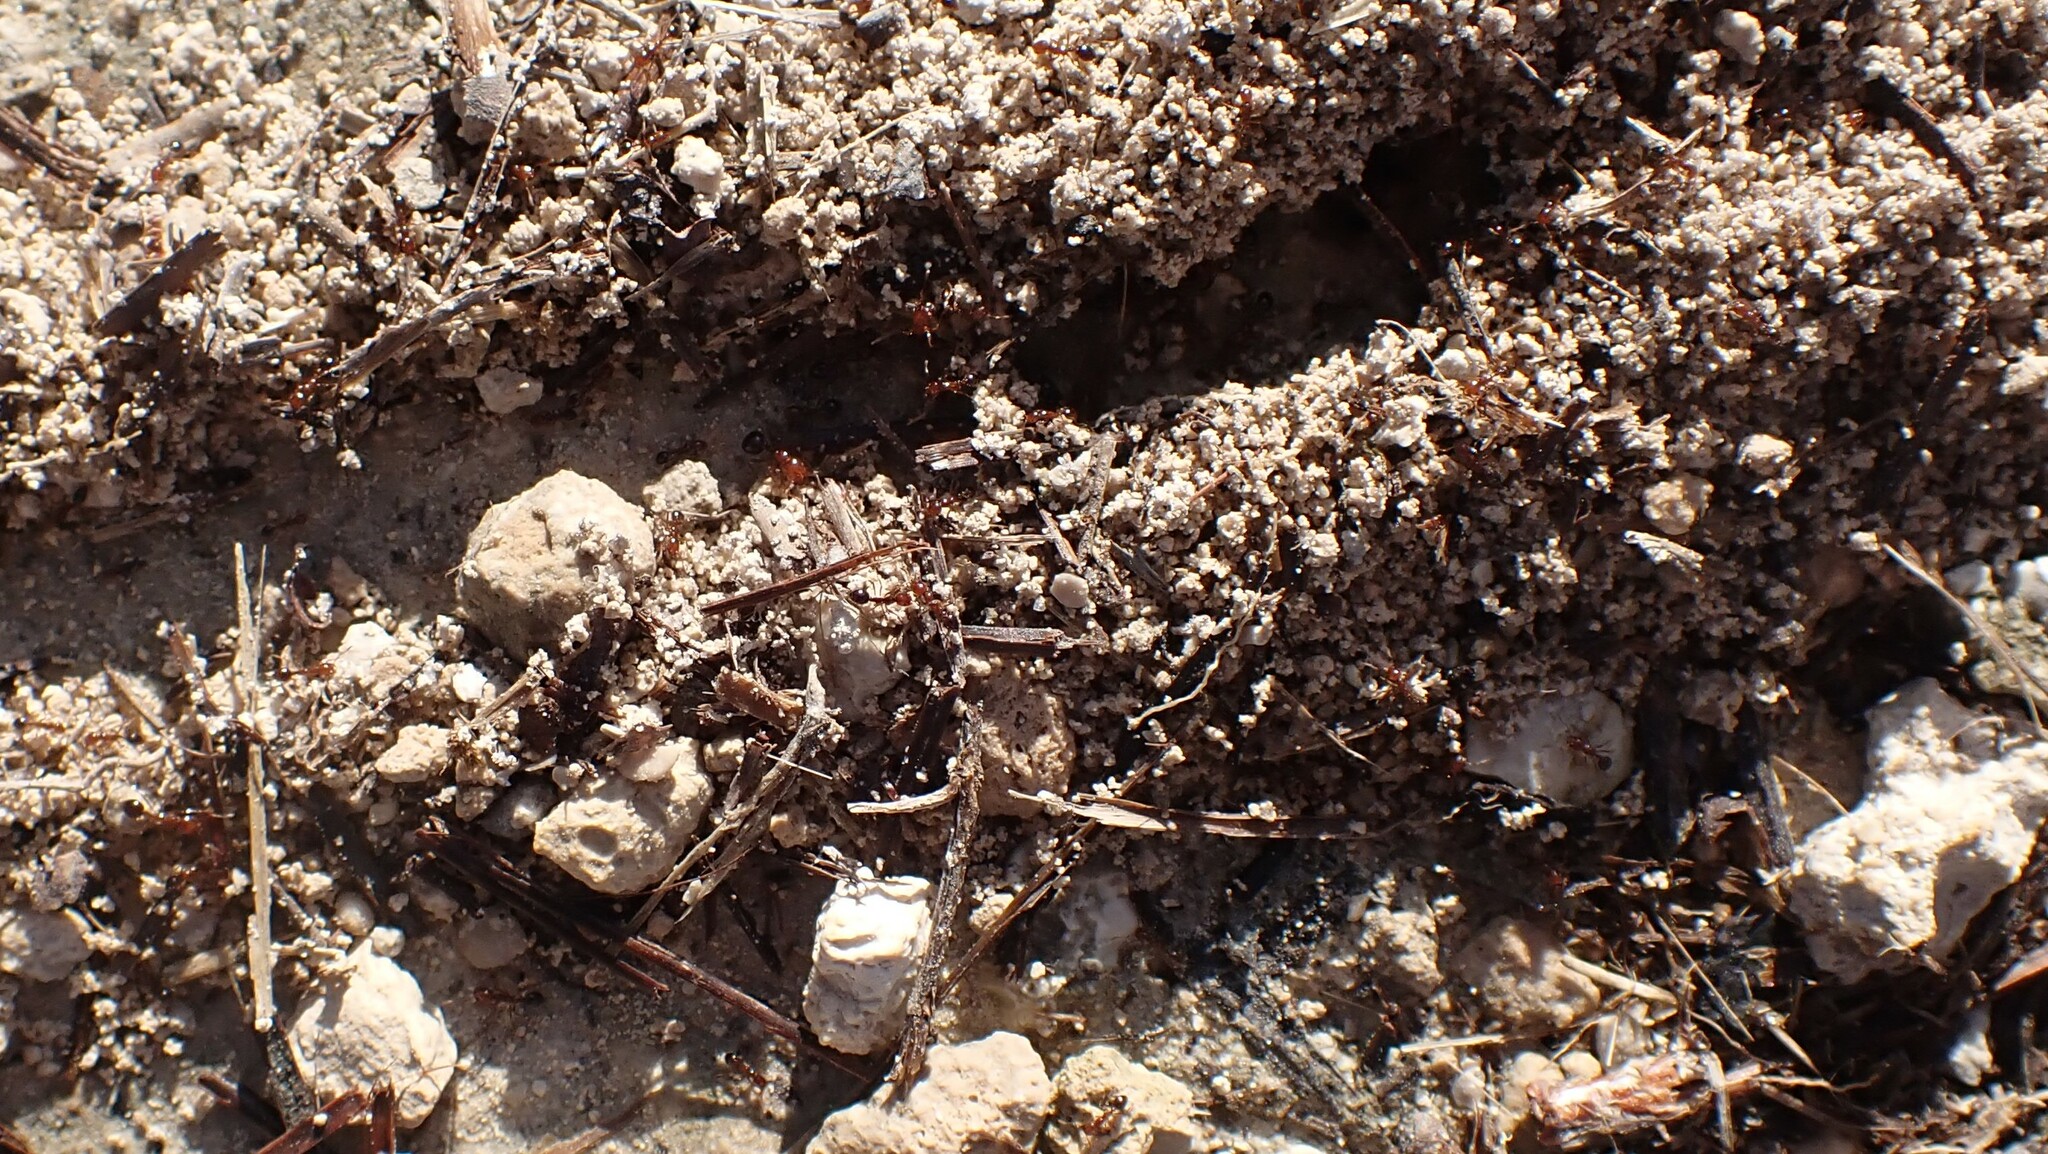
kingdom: Animalia
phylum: Arthropoda
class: Insecta
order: Hymenoptera
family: Formicidae
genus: Solenopsis
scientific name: Solenopsis invicta
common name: Red imported fire ant
